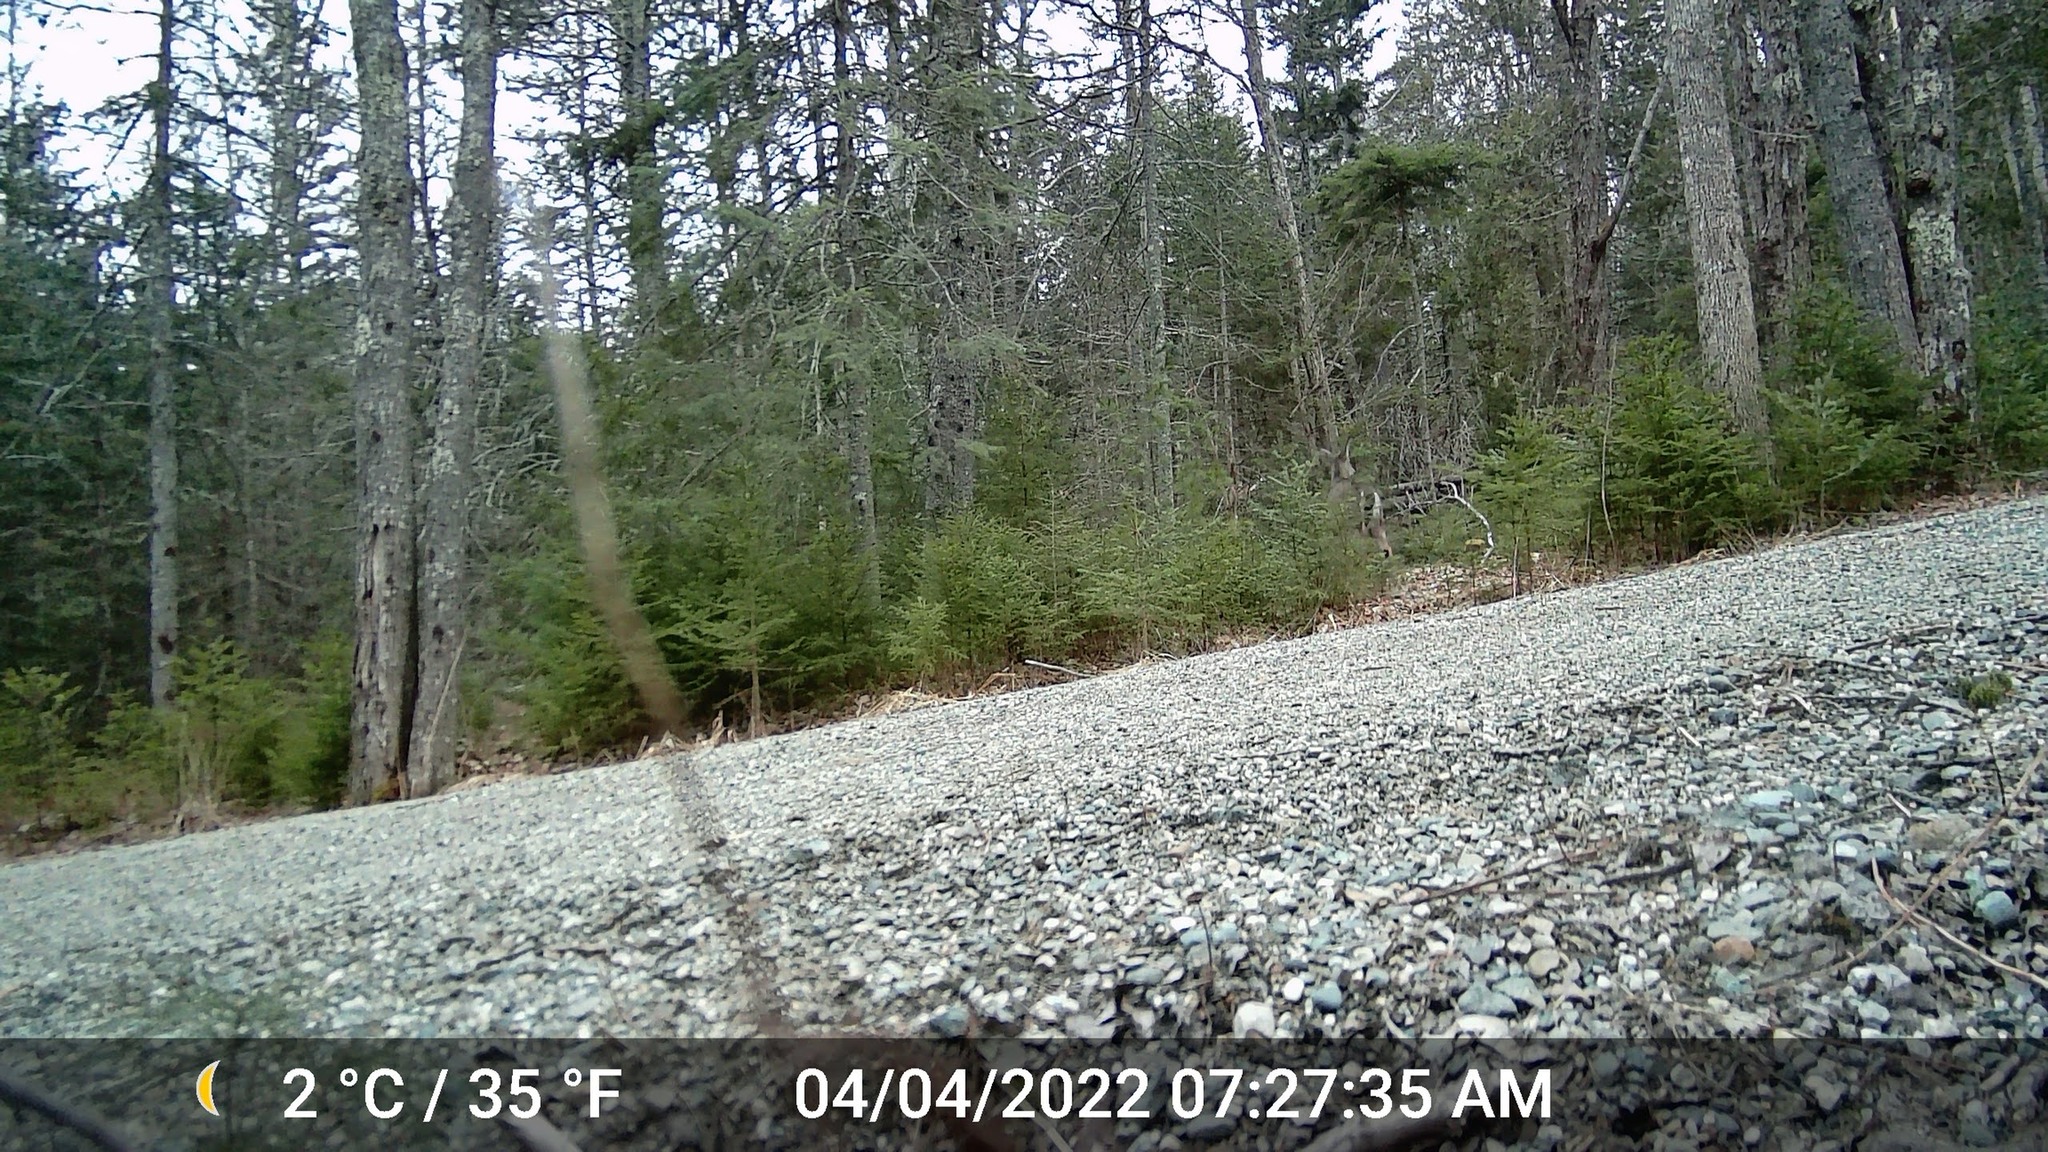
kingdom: Animalia
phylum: Chordata
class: Mammalia
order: Artiodactyla
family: Cervidae
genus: Odocoileus
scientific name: Odocoileus virginianus
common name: White-tailed deer
